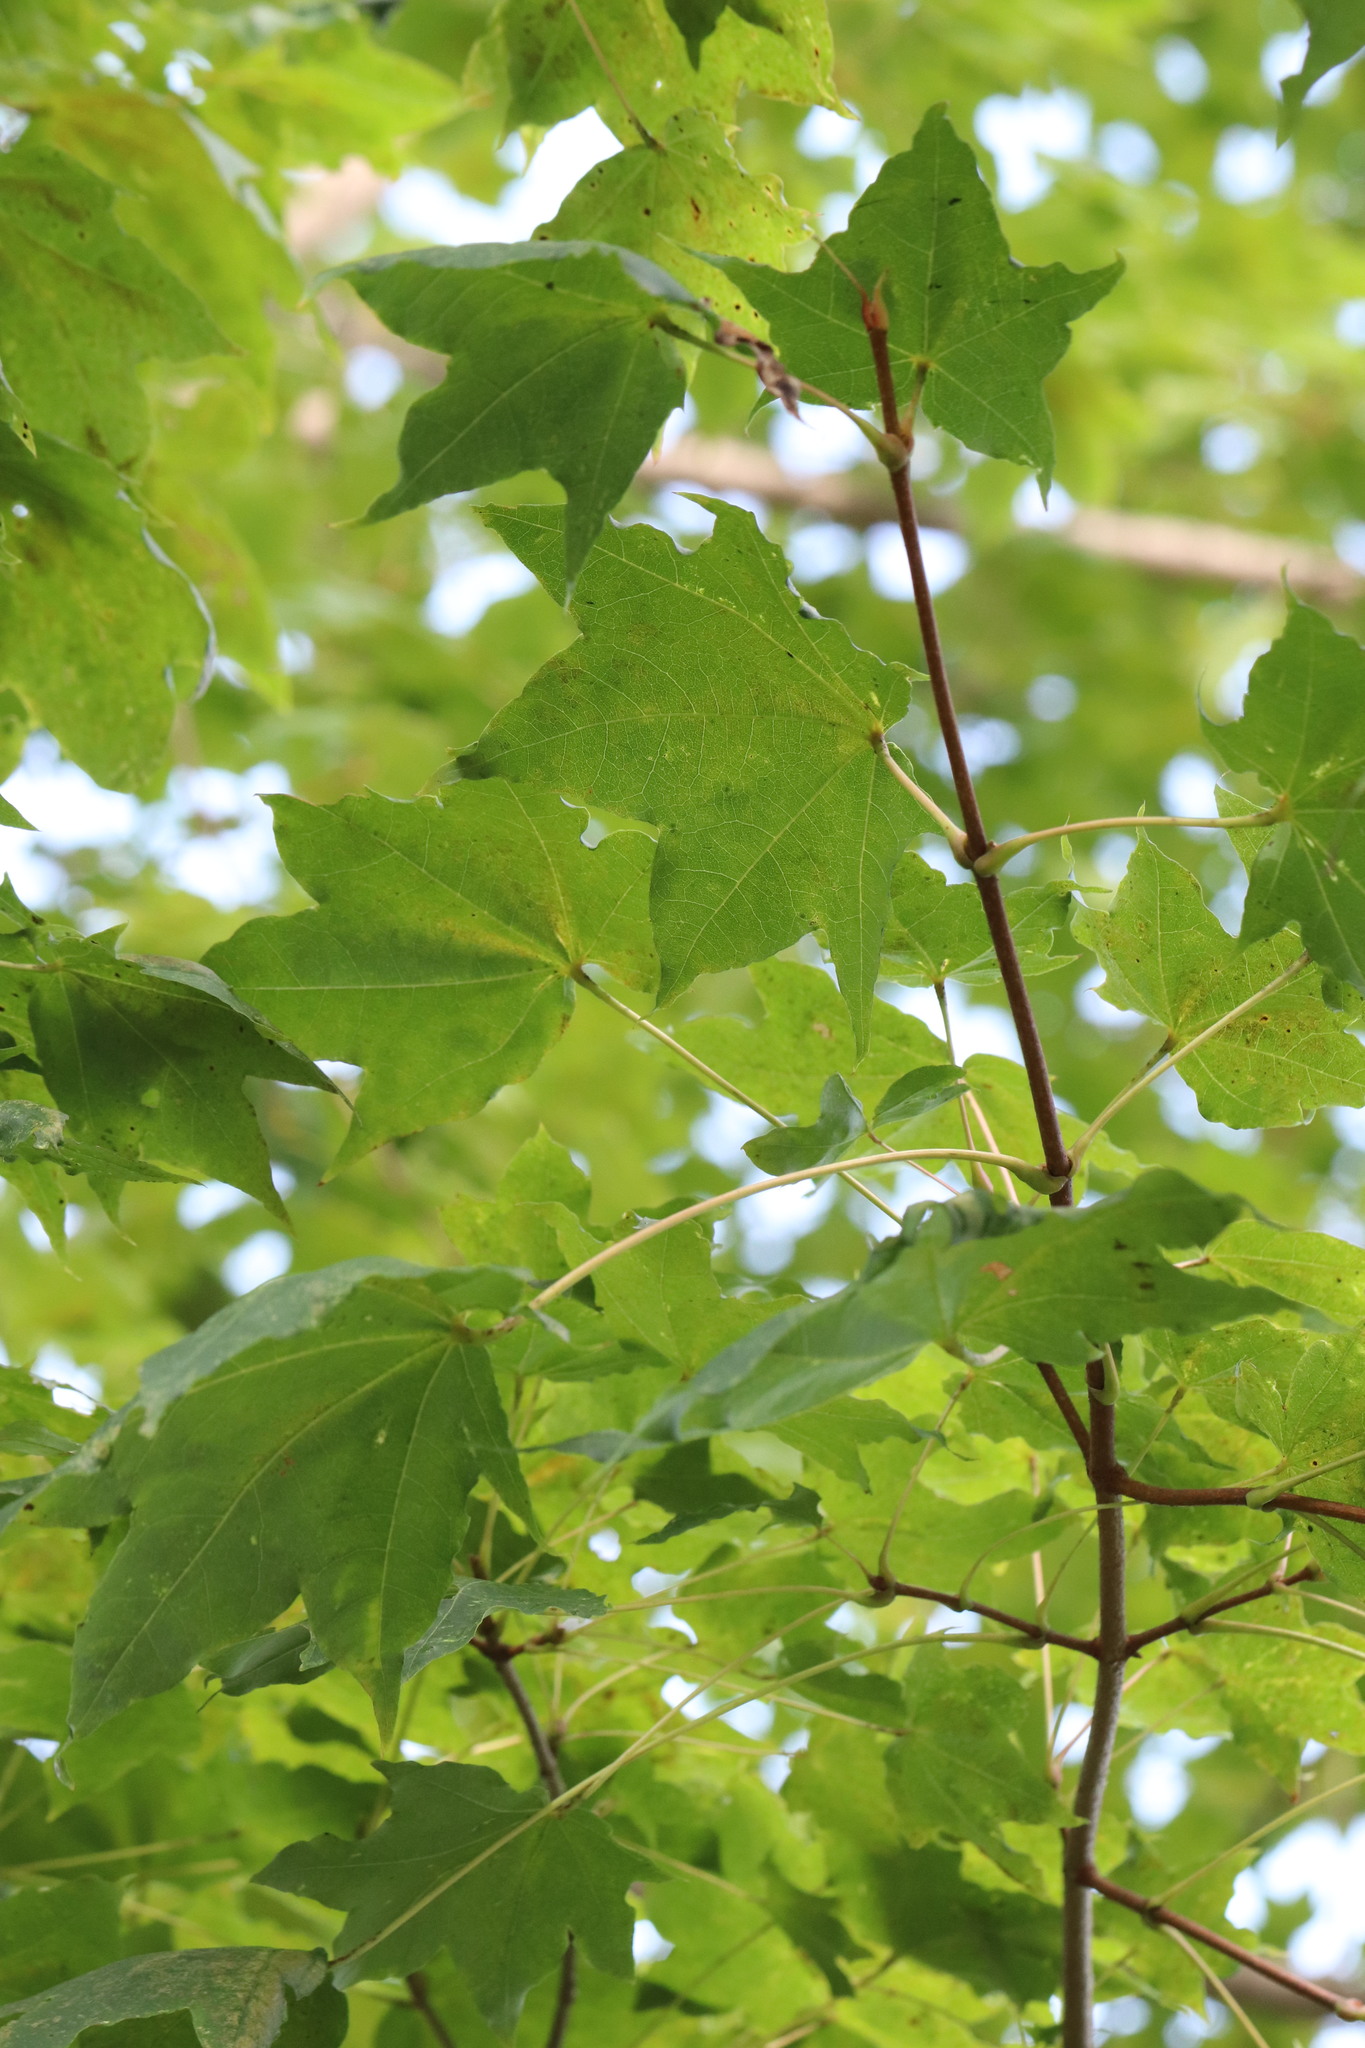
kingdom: Plantae
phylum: Tracheophyta
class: Magnoliopsida
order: Sapindales
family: Sapindaceae
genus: Acer
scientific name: Acer pictum
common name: The painted maple
